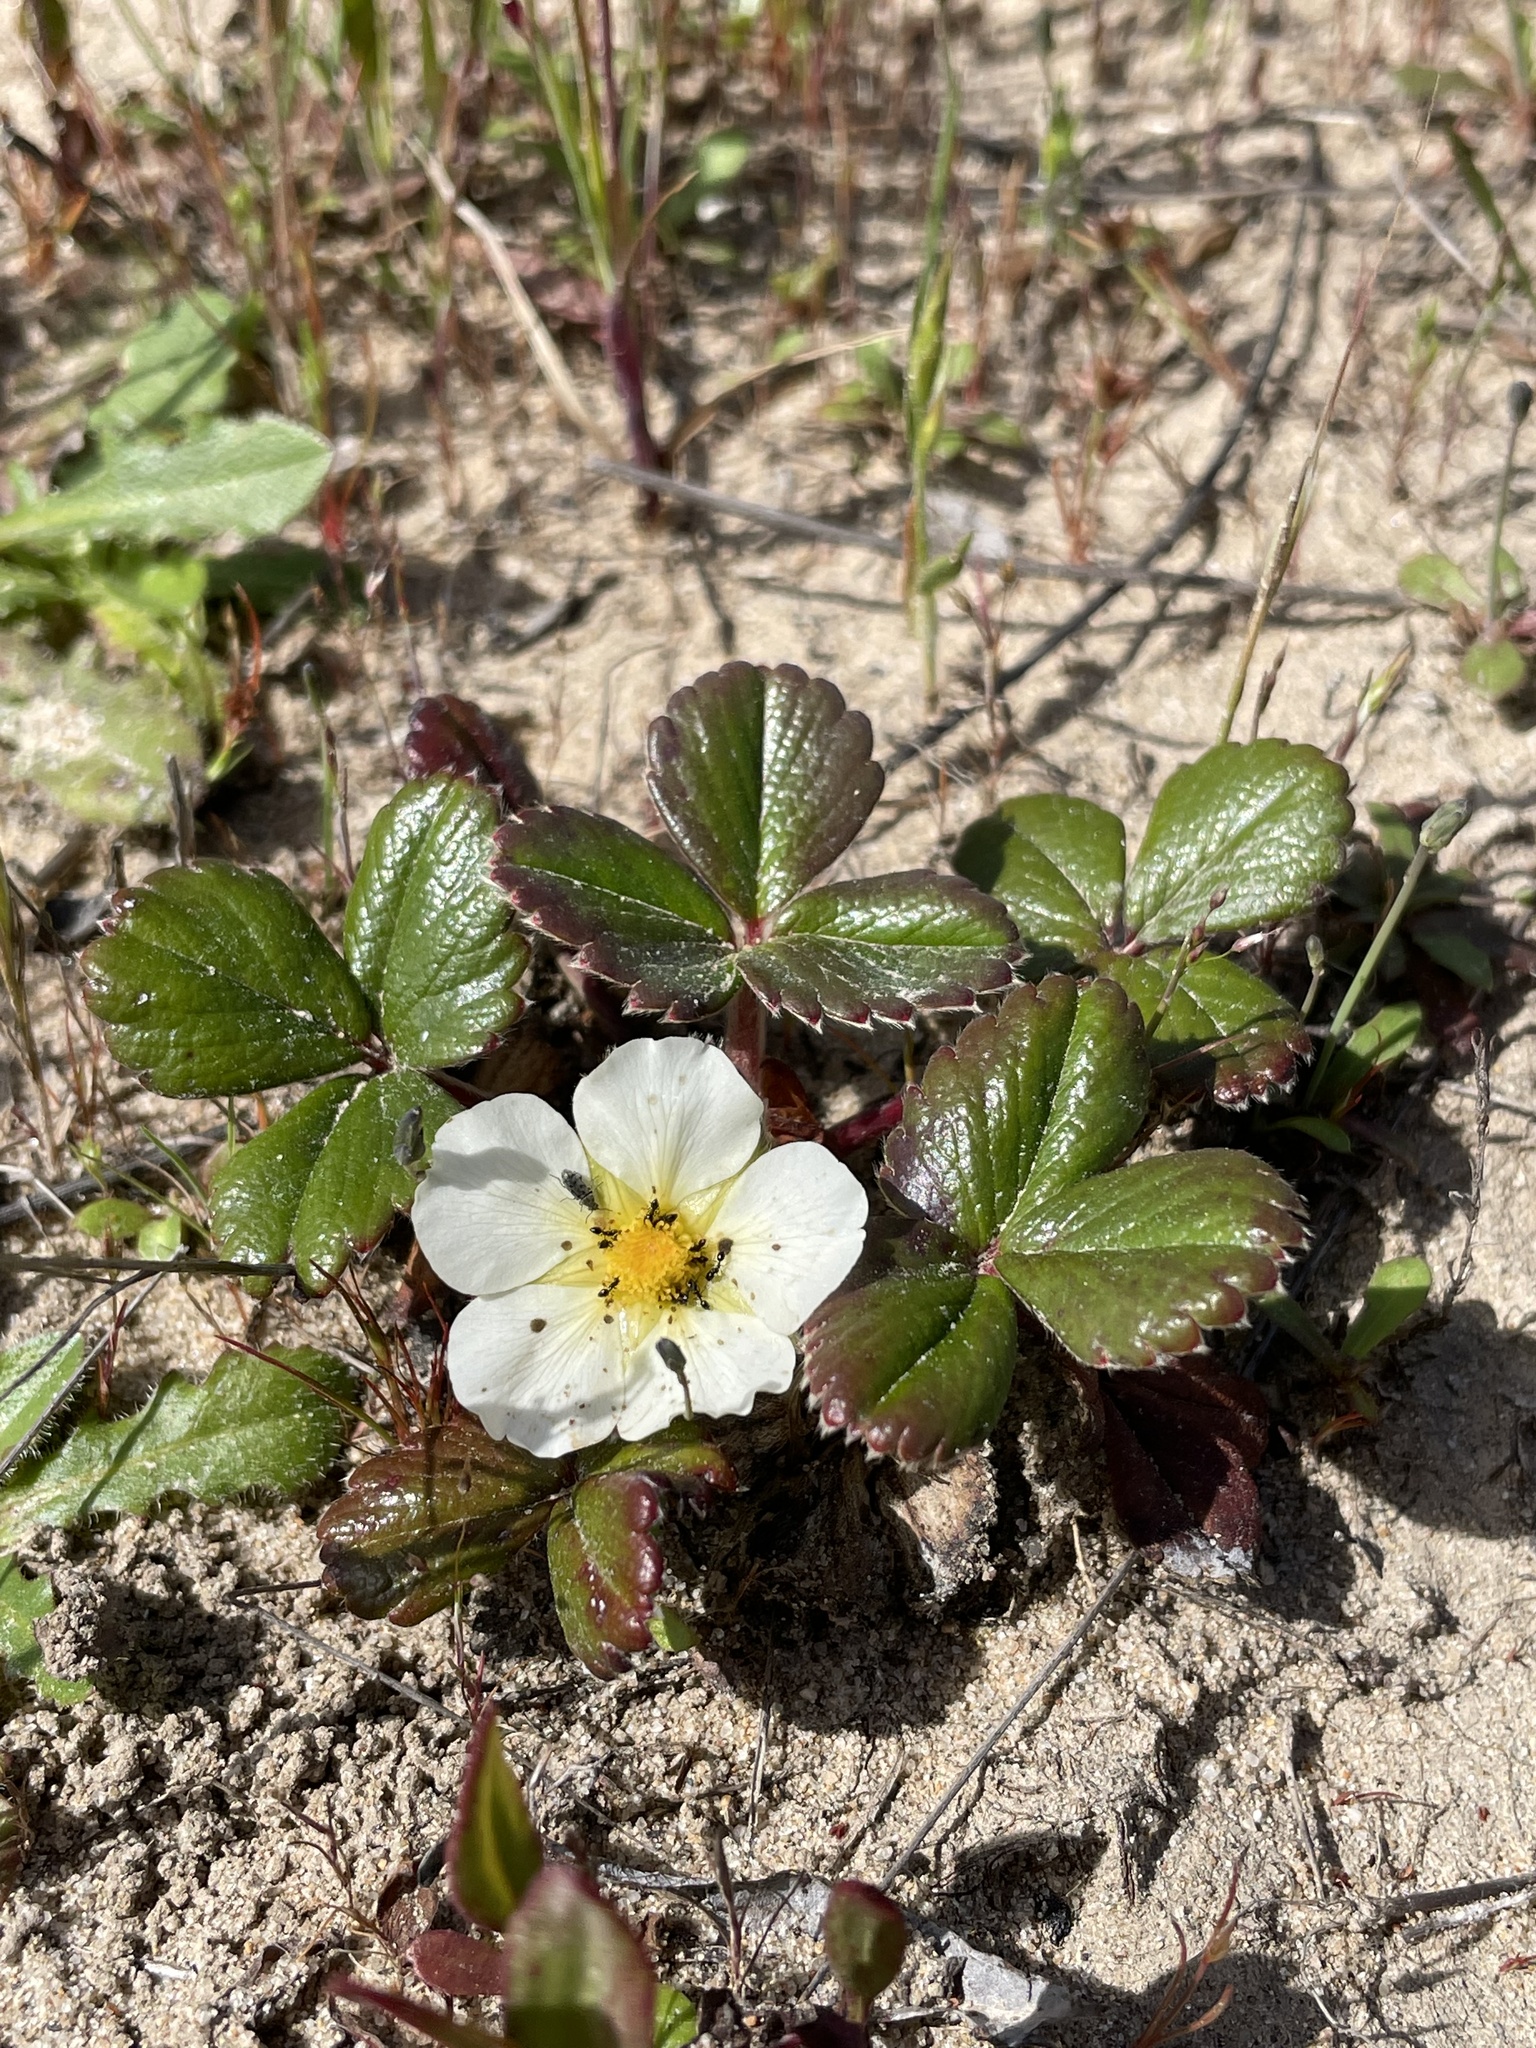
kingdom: Plantae
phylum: Tracheophyta
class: Magnoliopsida
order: Rosales
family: Rosaceae
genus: Fragaria
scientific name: Fragaria chiloensis
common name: Beach strawberry
